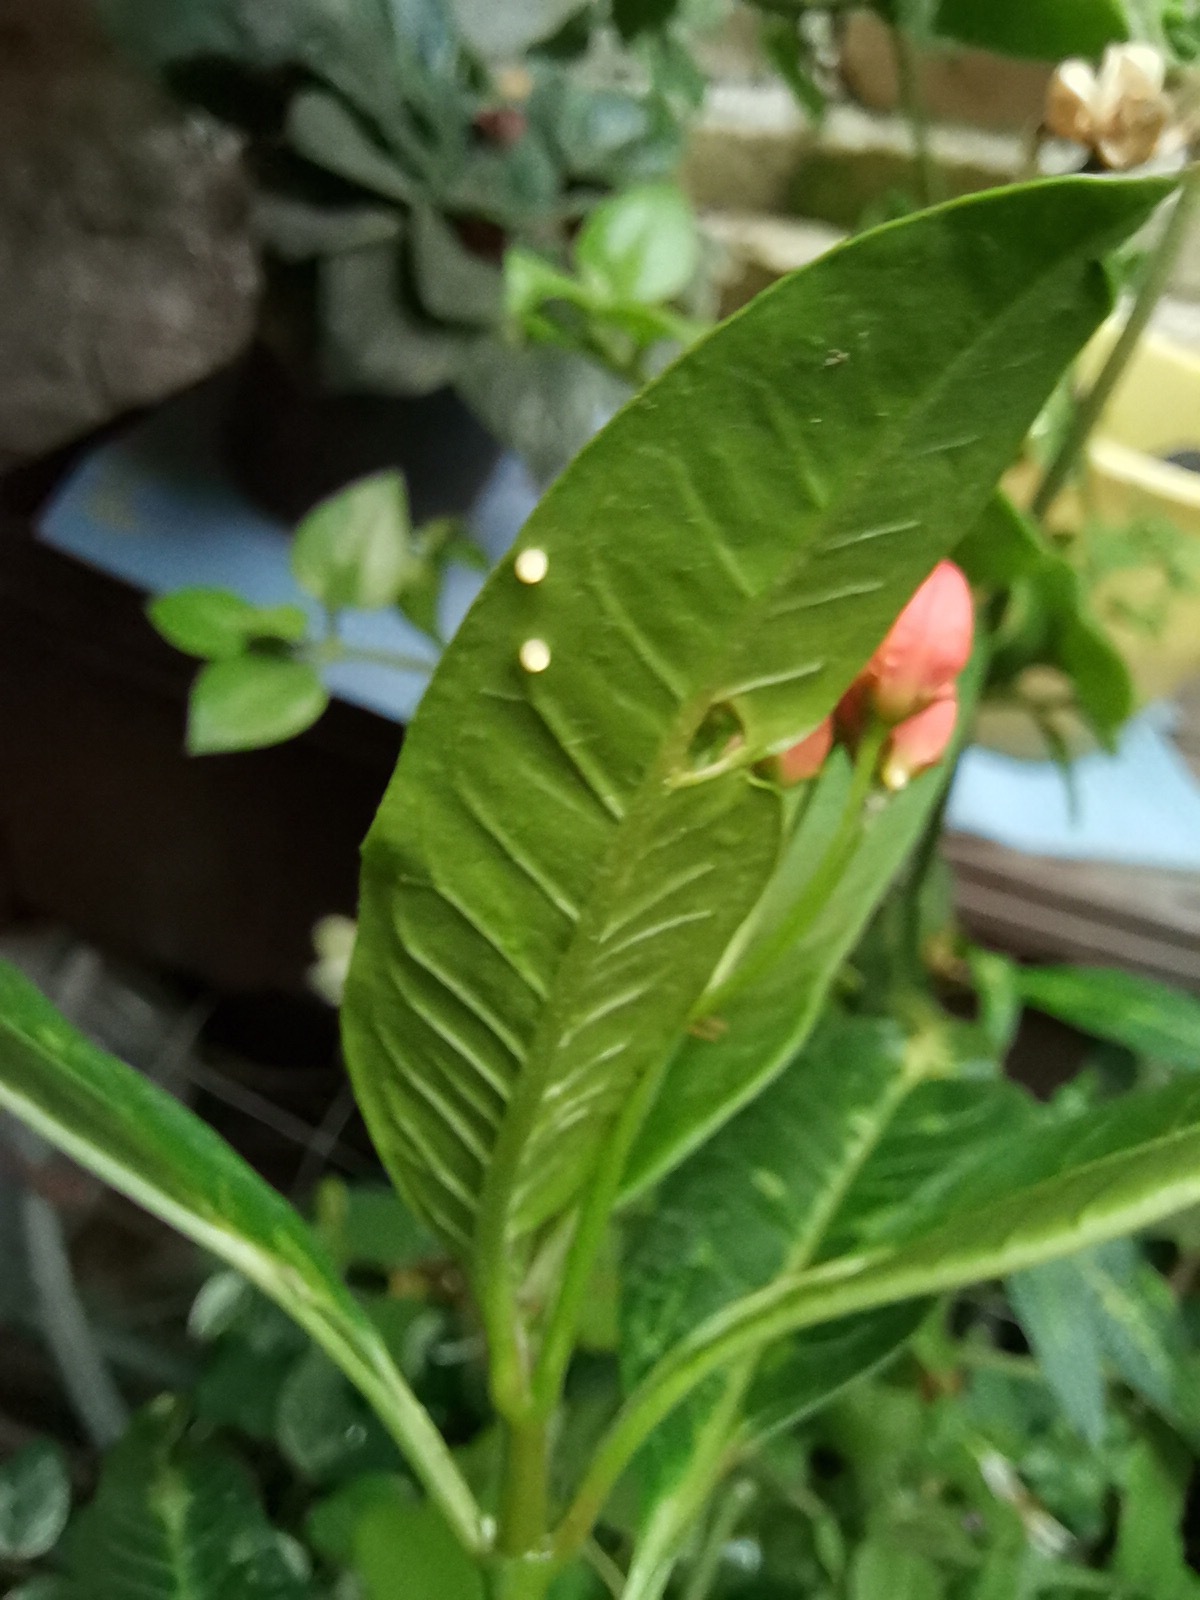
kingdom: Animalia
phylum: Arthropoda
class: Insecta
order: Lepidoptera
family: Nymphalidae
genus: Danaus
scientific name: Danaus plexippus
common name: Monarch
